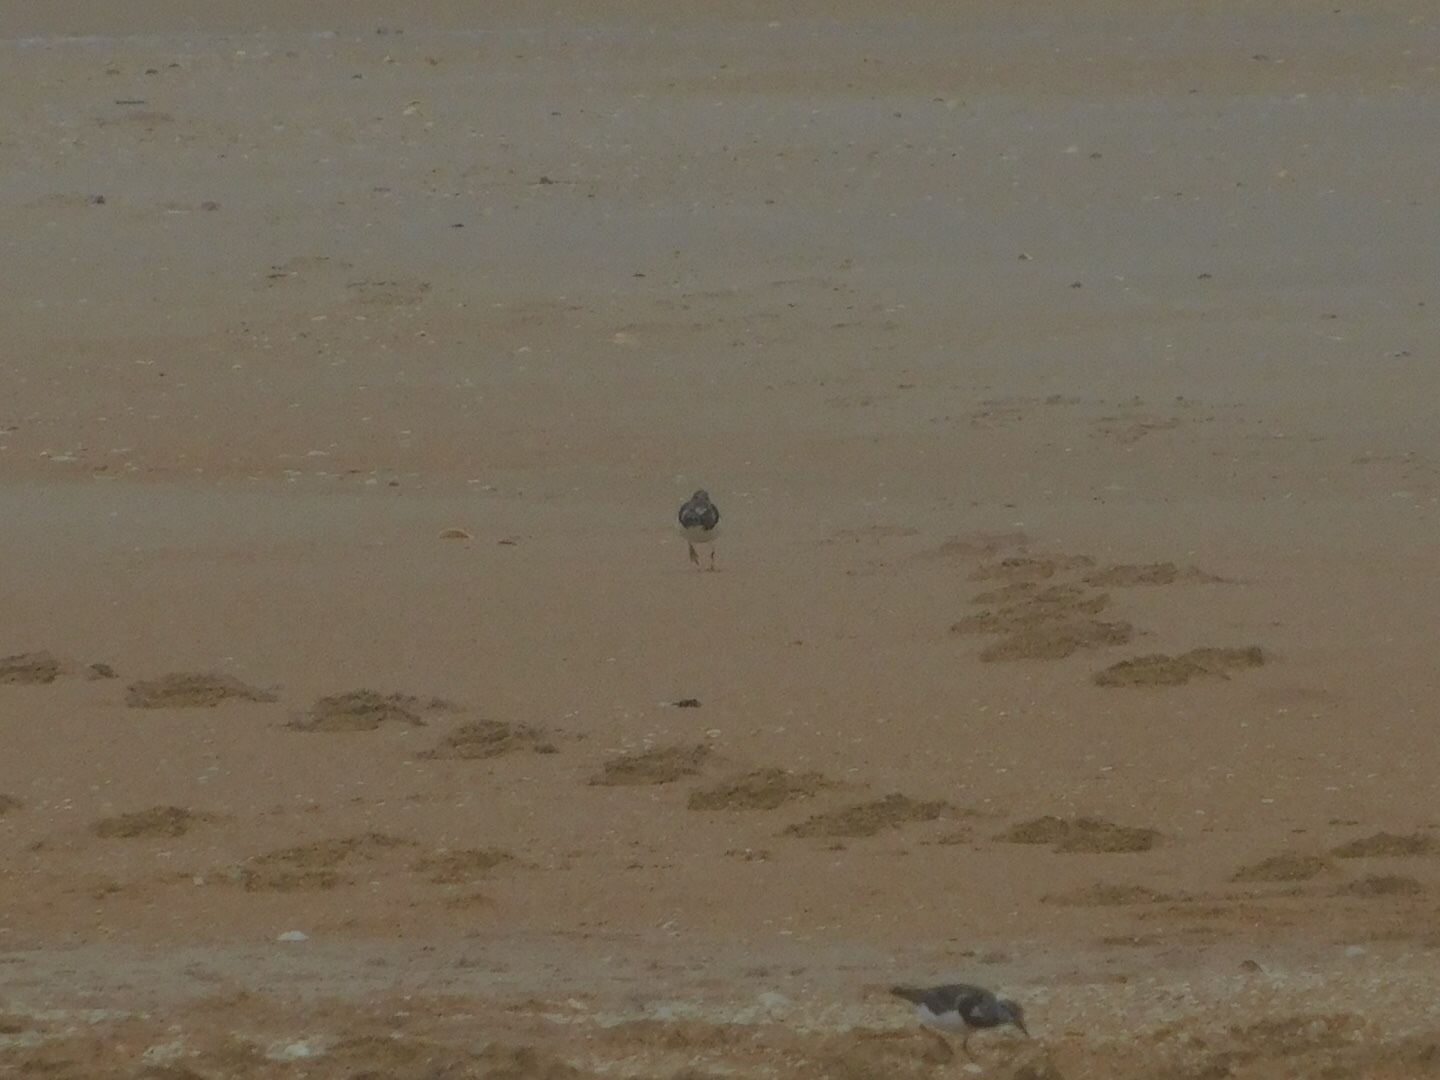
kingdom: Animalia
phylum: Chordata
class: Aves
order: Charadriiformes
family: Scolopacidae
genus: Arenaria
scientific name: Arenaria interpres
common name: Ruddy turnstone
